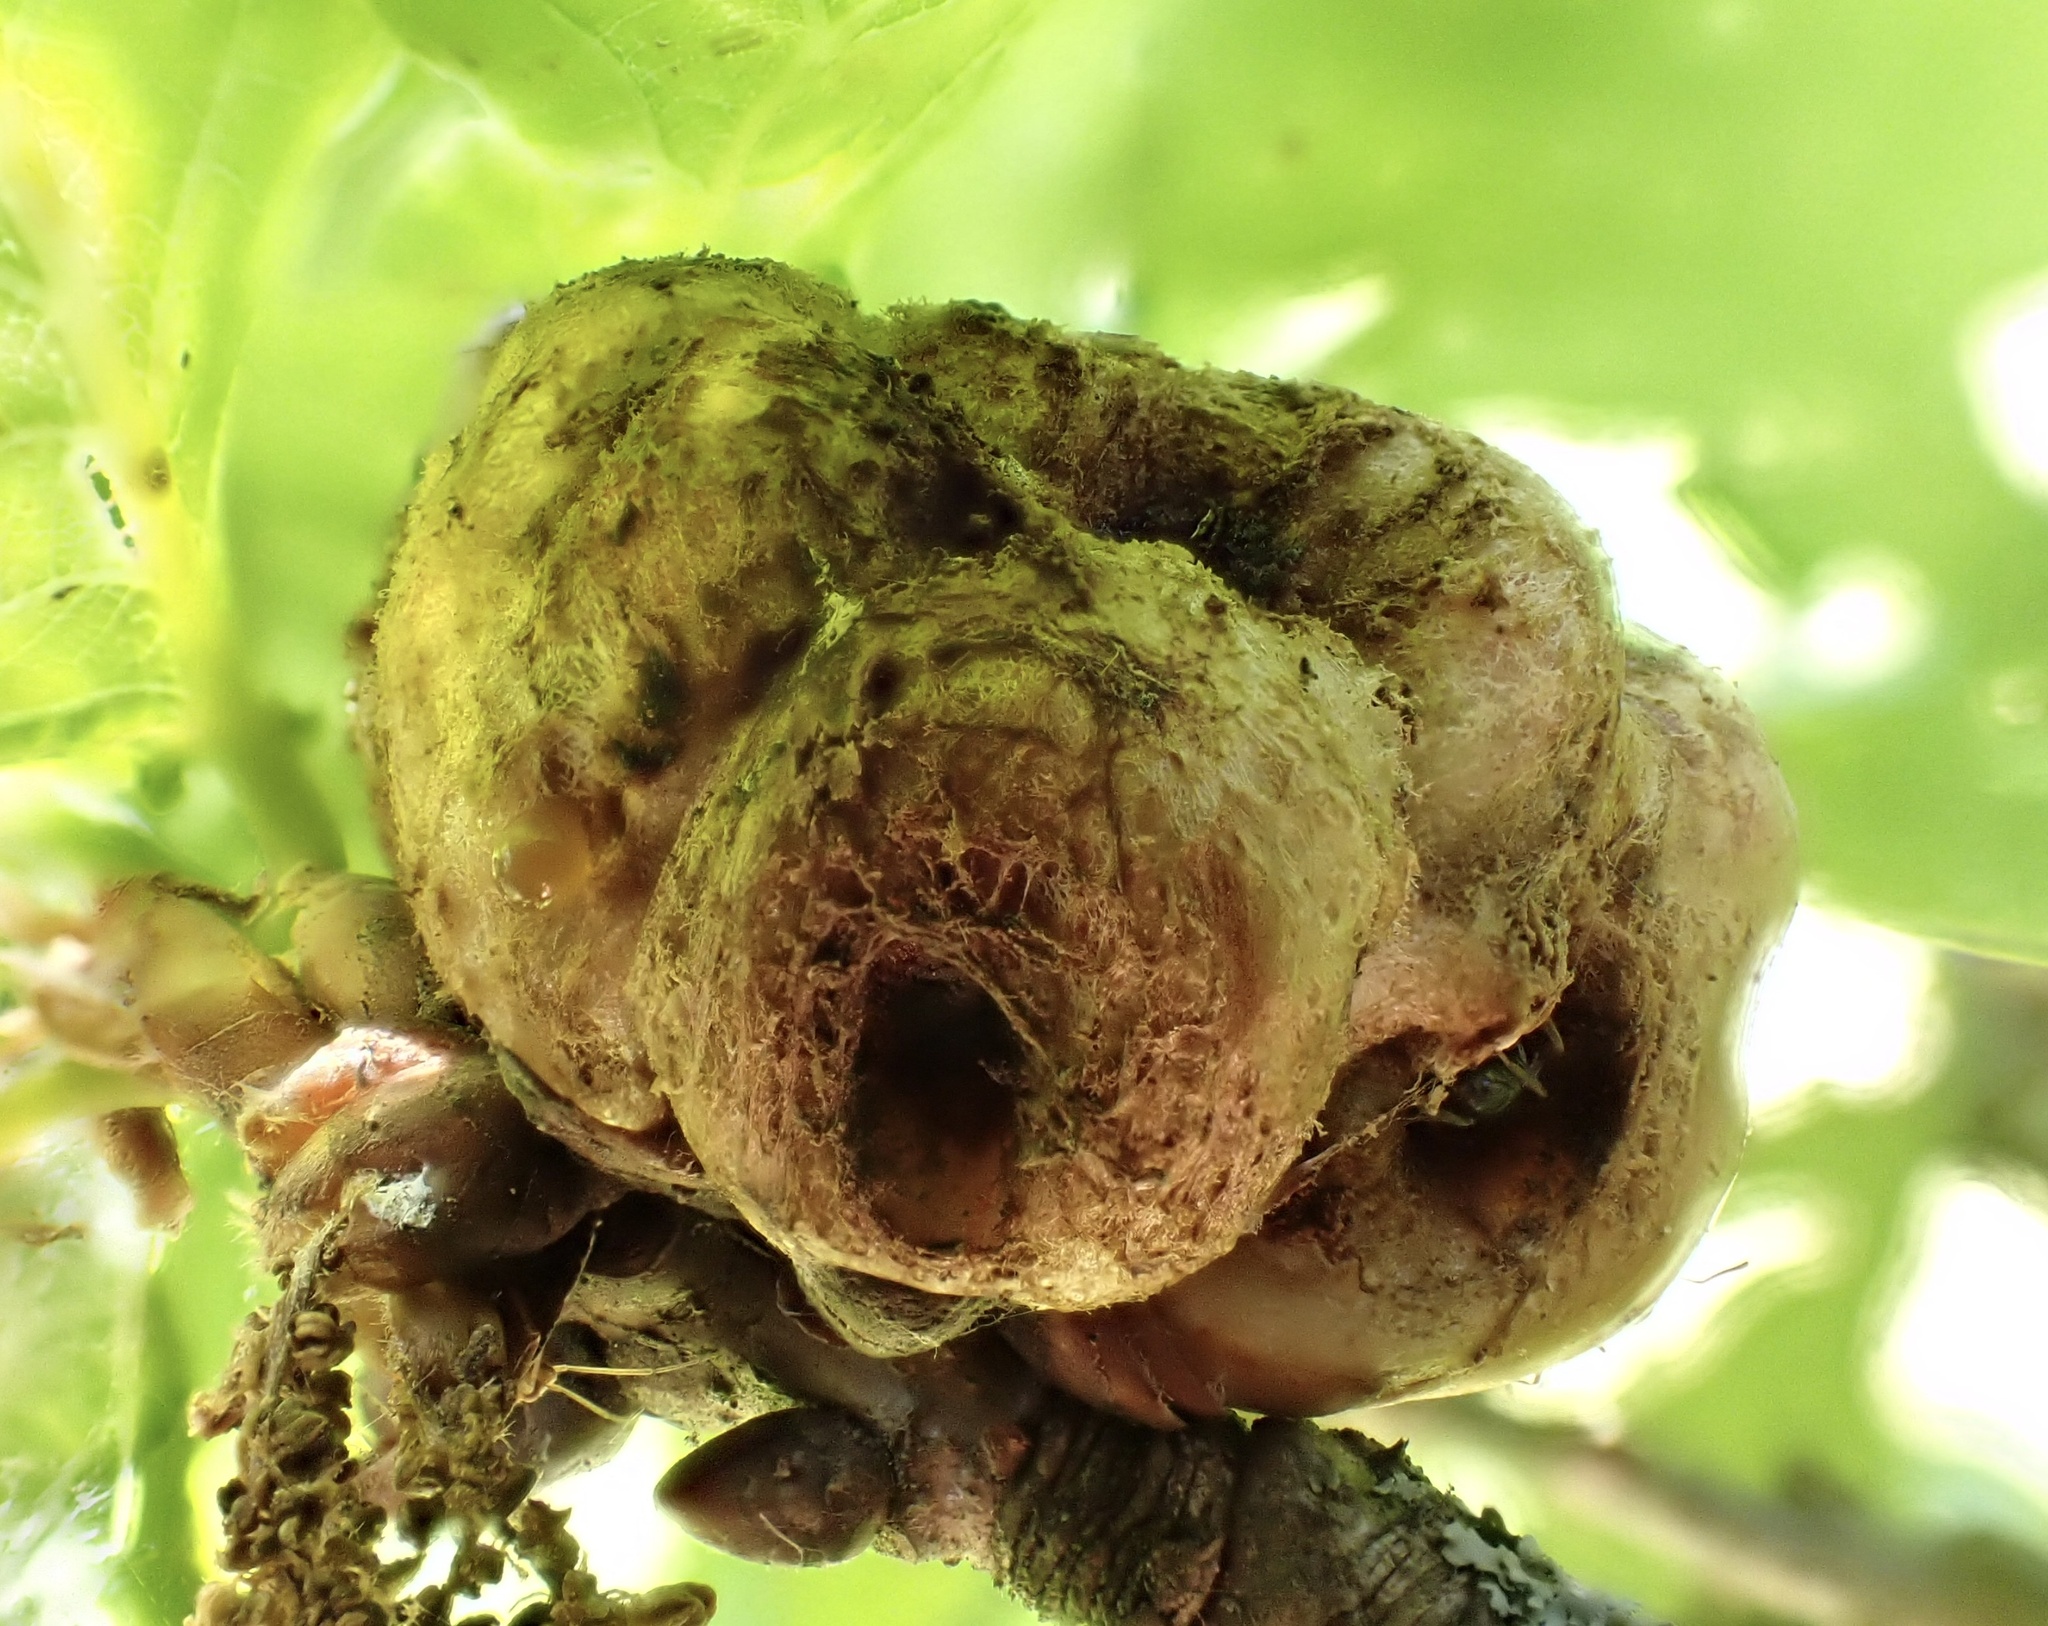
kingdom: Animalia
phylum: Arthropoda
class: Insecta
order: Hymenoptera
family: Cynipidae
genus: Biorhiza
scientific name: Biorhiza pallida
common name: Oak apple
